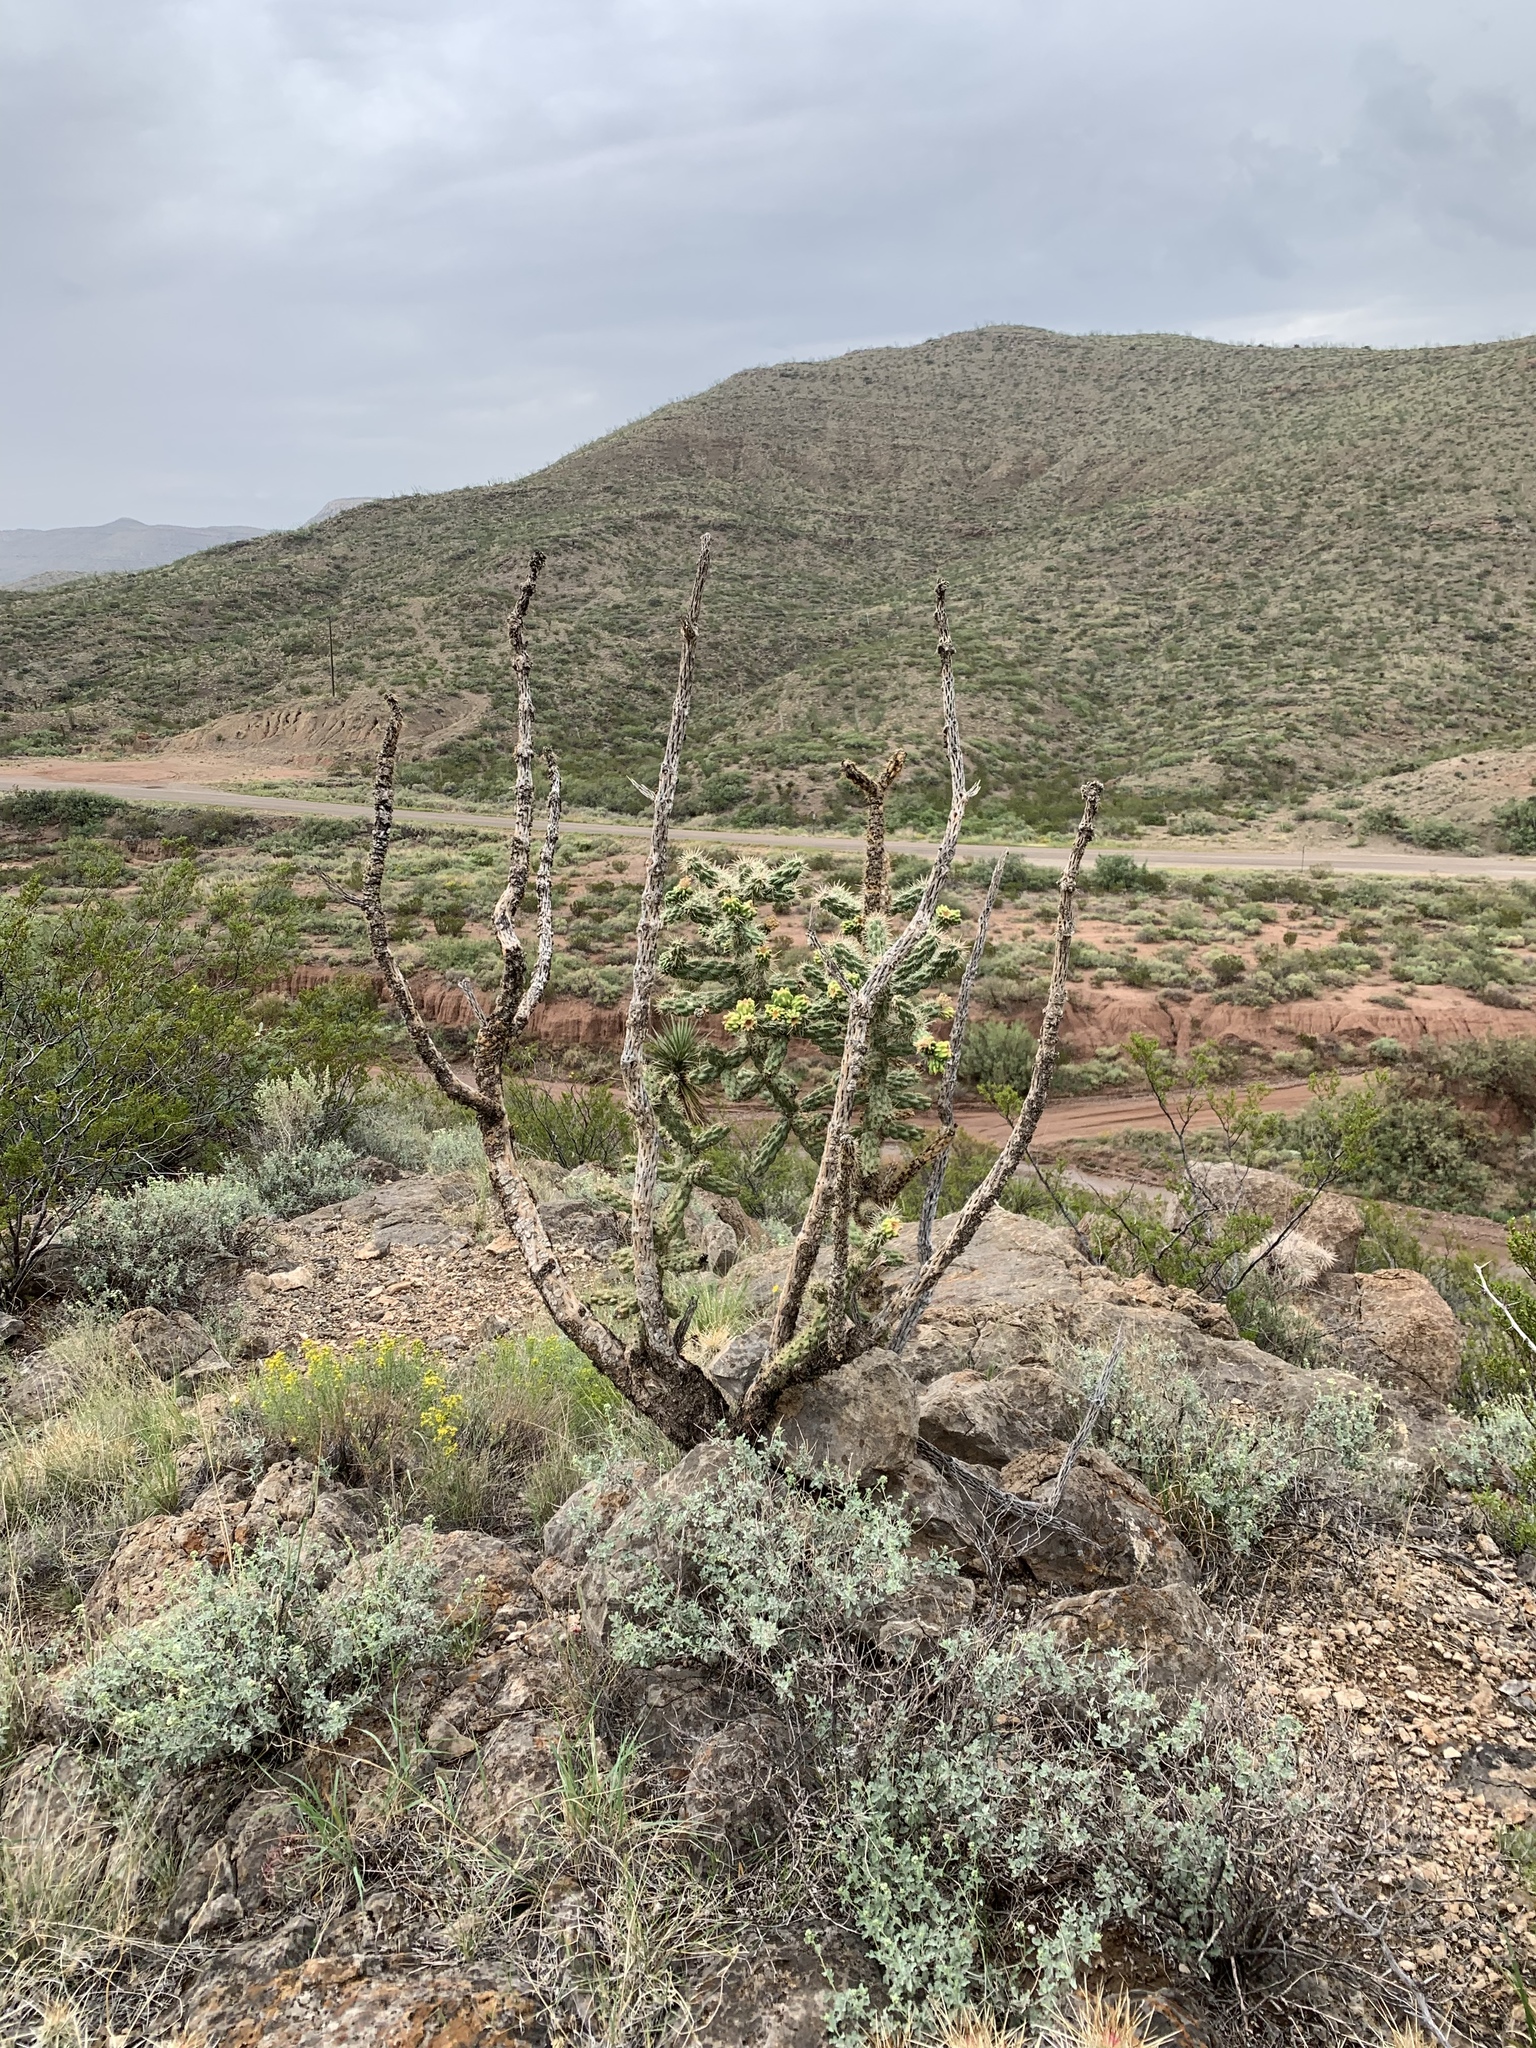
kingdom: Plantae
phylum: Tracheophyta
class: Magnoliopsida
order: Caryophyllales
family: Cactaceae
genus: Cylindropuntia
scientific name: Cylindropuntia imbricata
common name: Candelabrum cactus
